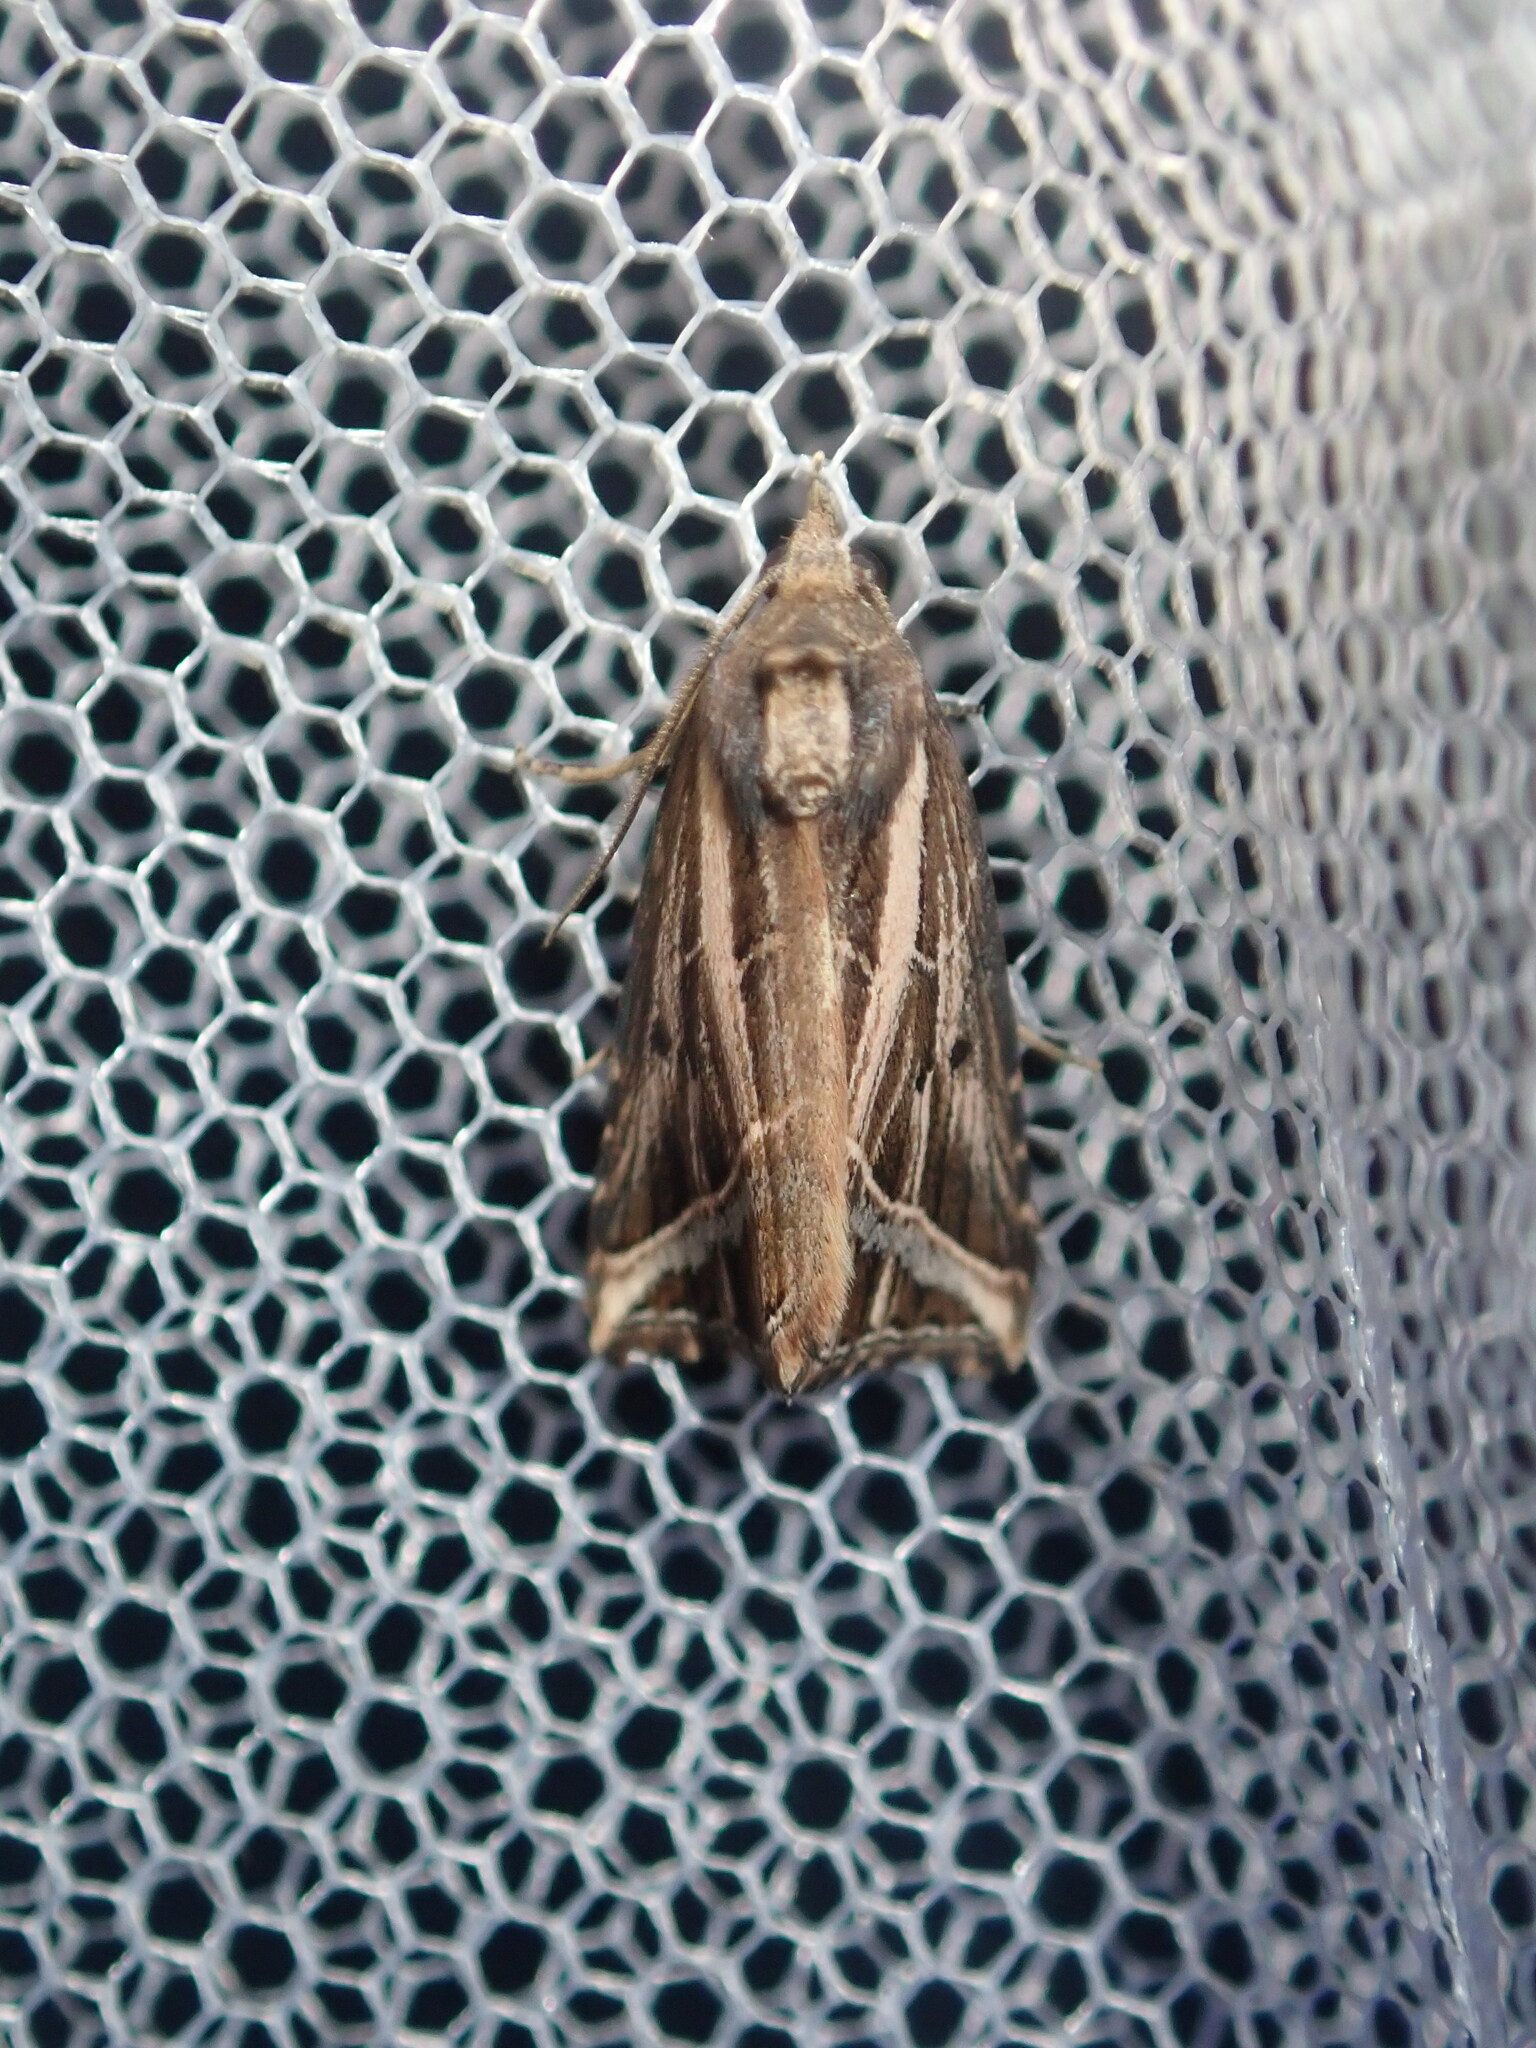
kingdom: Animalia
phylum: Arthropoda
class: Insecta
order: Lepidoptera
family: Erebidae
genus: Lophotoma
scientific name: Lophotoma diagrapha
